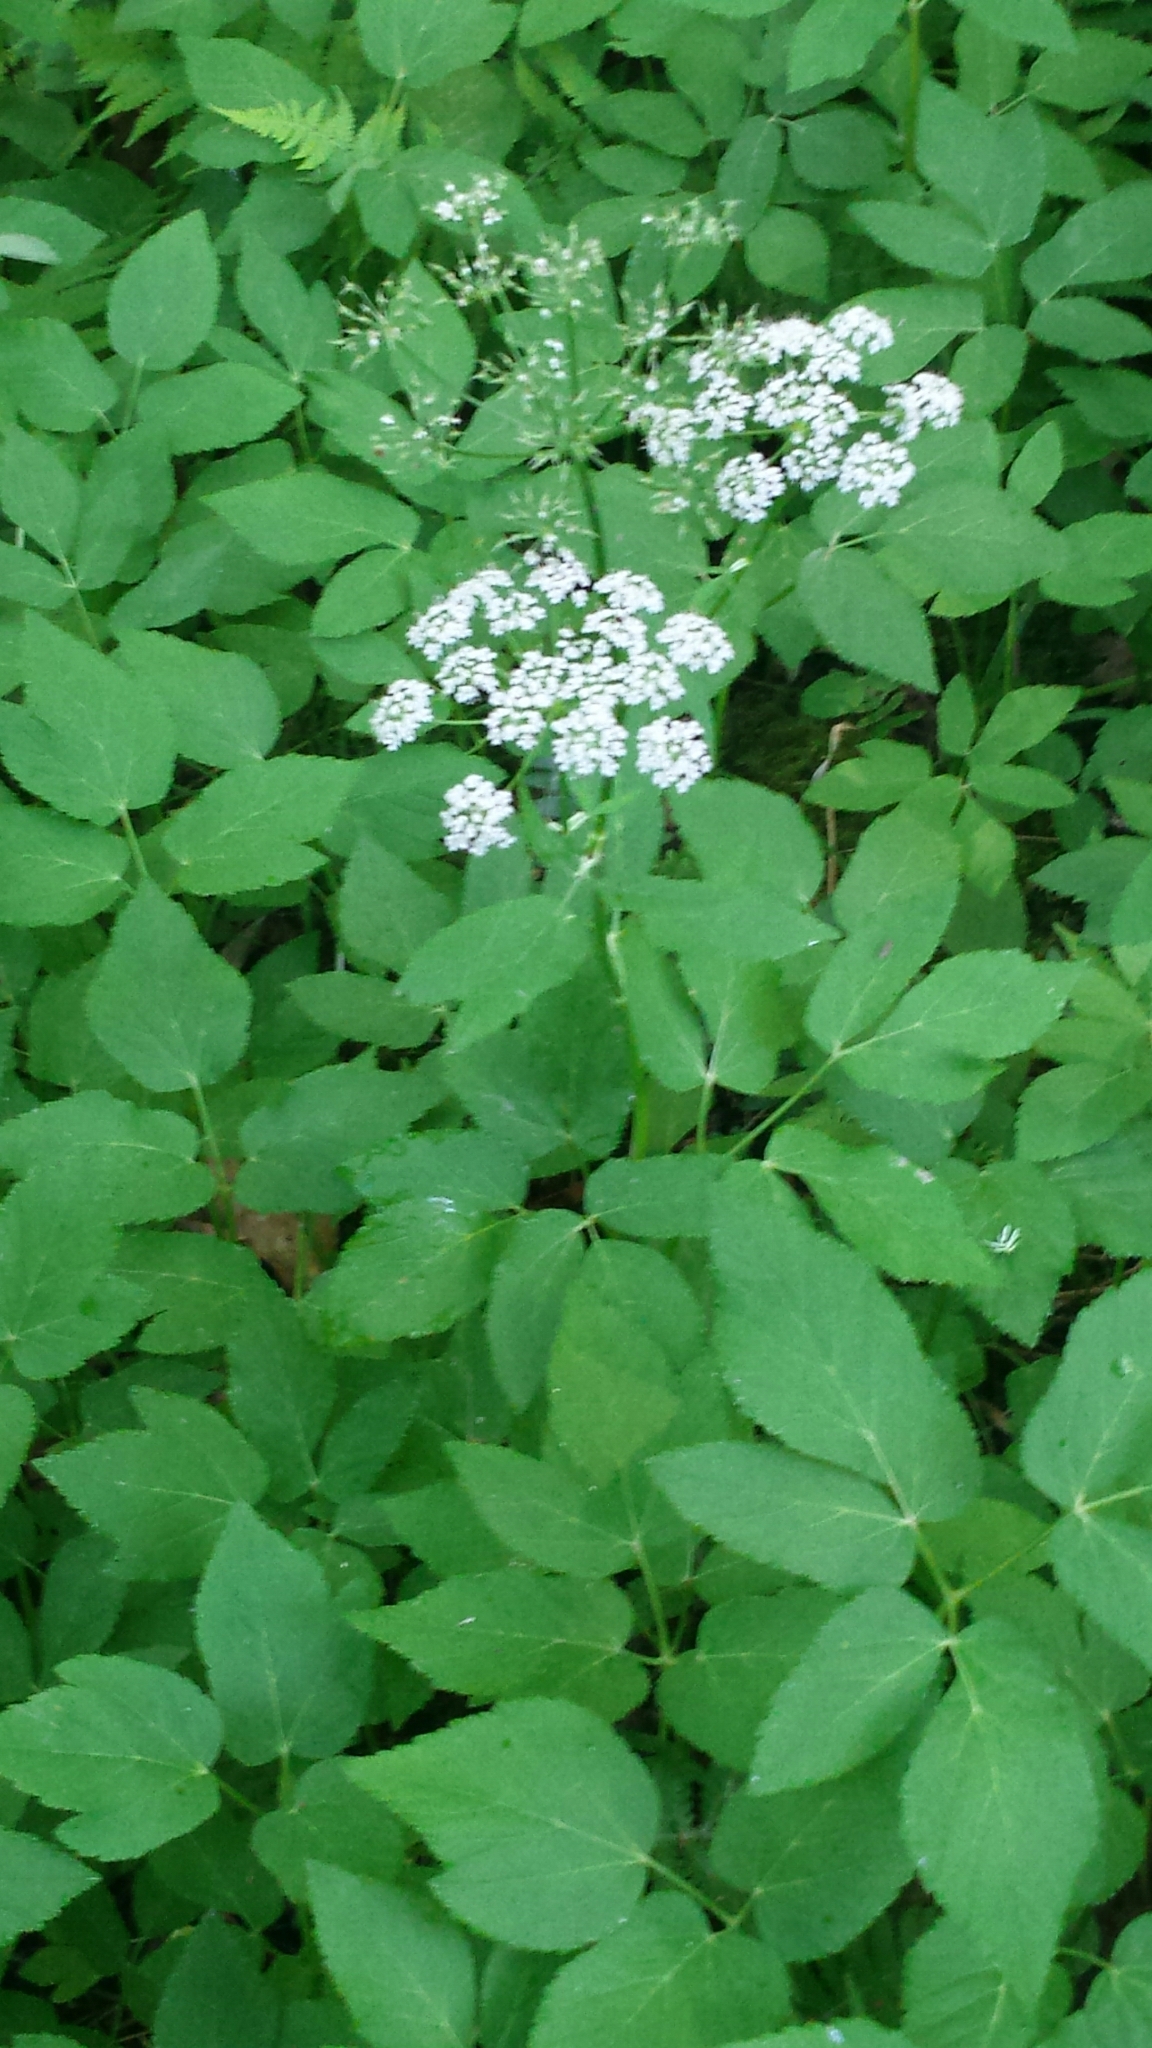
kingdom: Plantae
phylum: Tracheophyta
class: Magnoliopsida
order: Apiales
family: Apiaceae
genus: Aegopodium
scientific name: Aegopodium podagraria
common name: Ground-elder
